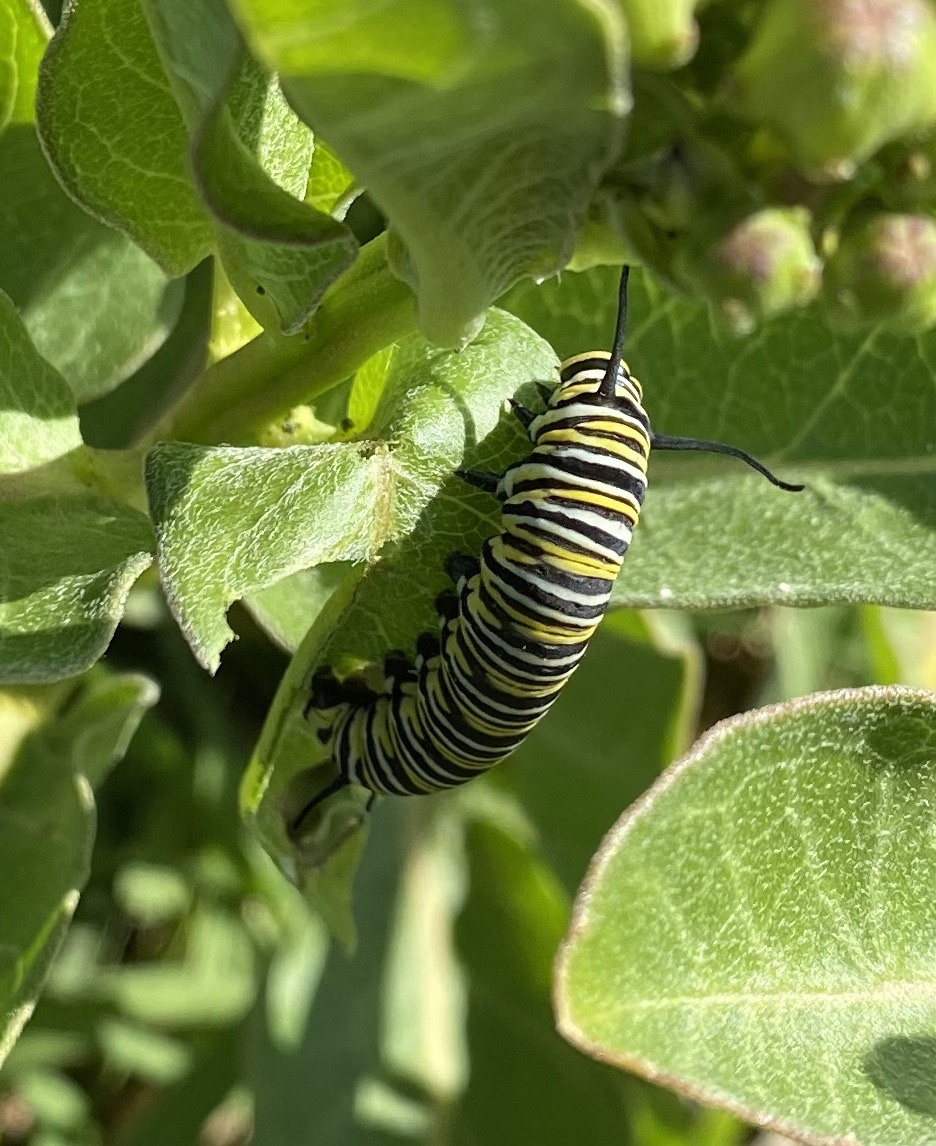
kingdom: Animalia
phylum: Arthropoda
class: Insecta
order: Lepidoptera
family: Nymphalidae
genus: Danaus
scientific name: Danaus plexippus
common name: Monarch
